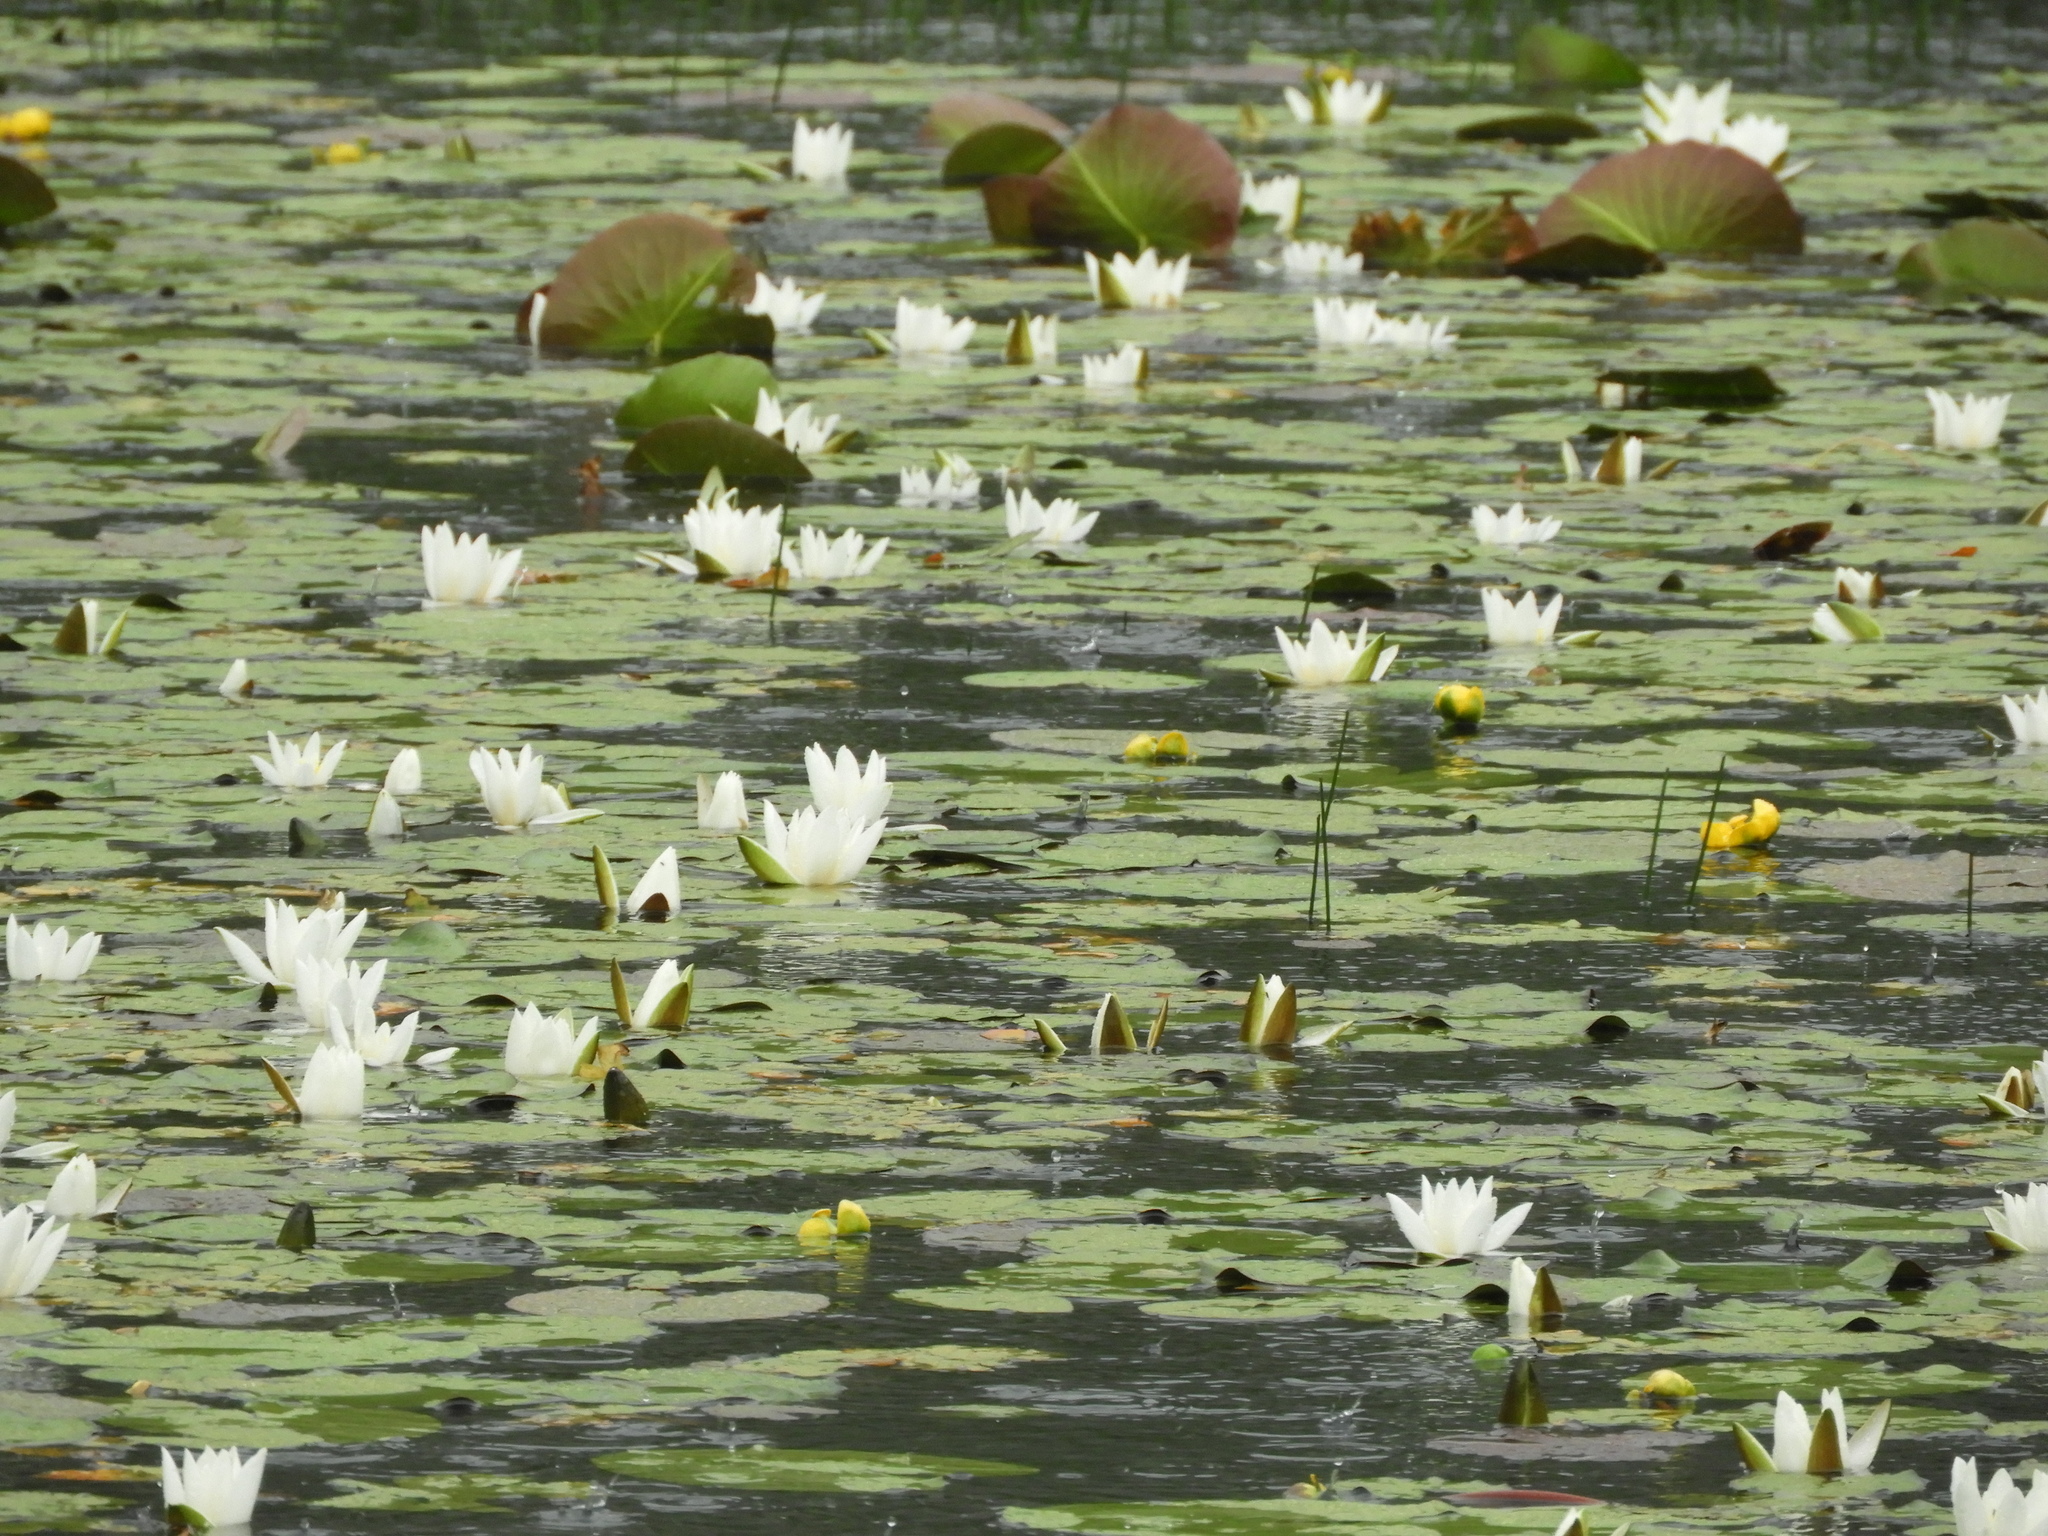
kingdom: Plantae
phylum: Tracheophyta
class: Magnoliopsida
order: Nymphaeales
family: Nymphaeaceae
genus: Nymphaea
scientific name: Nymphaea alba
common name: White water-lily
